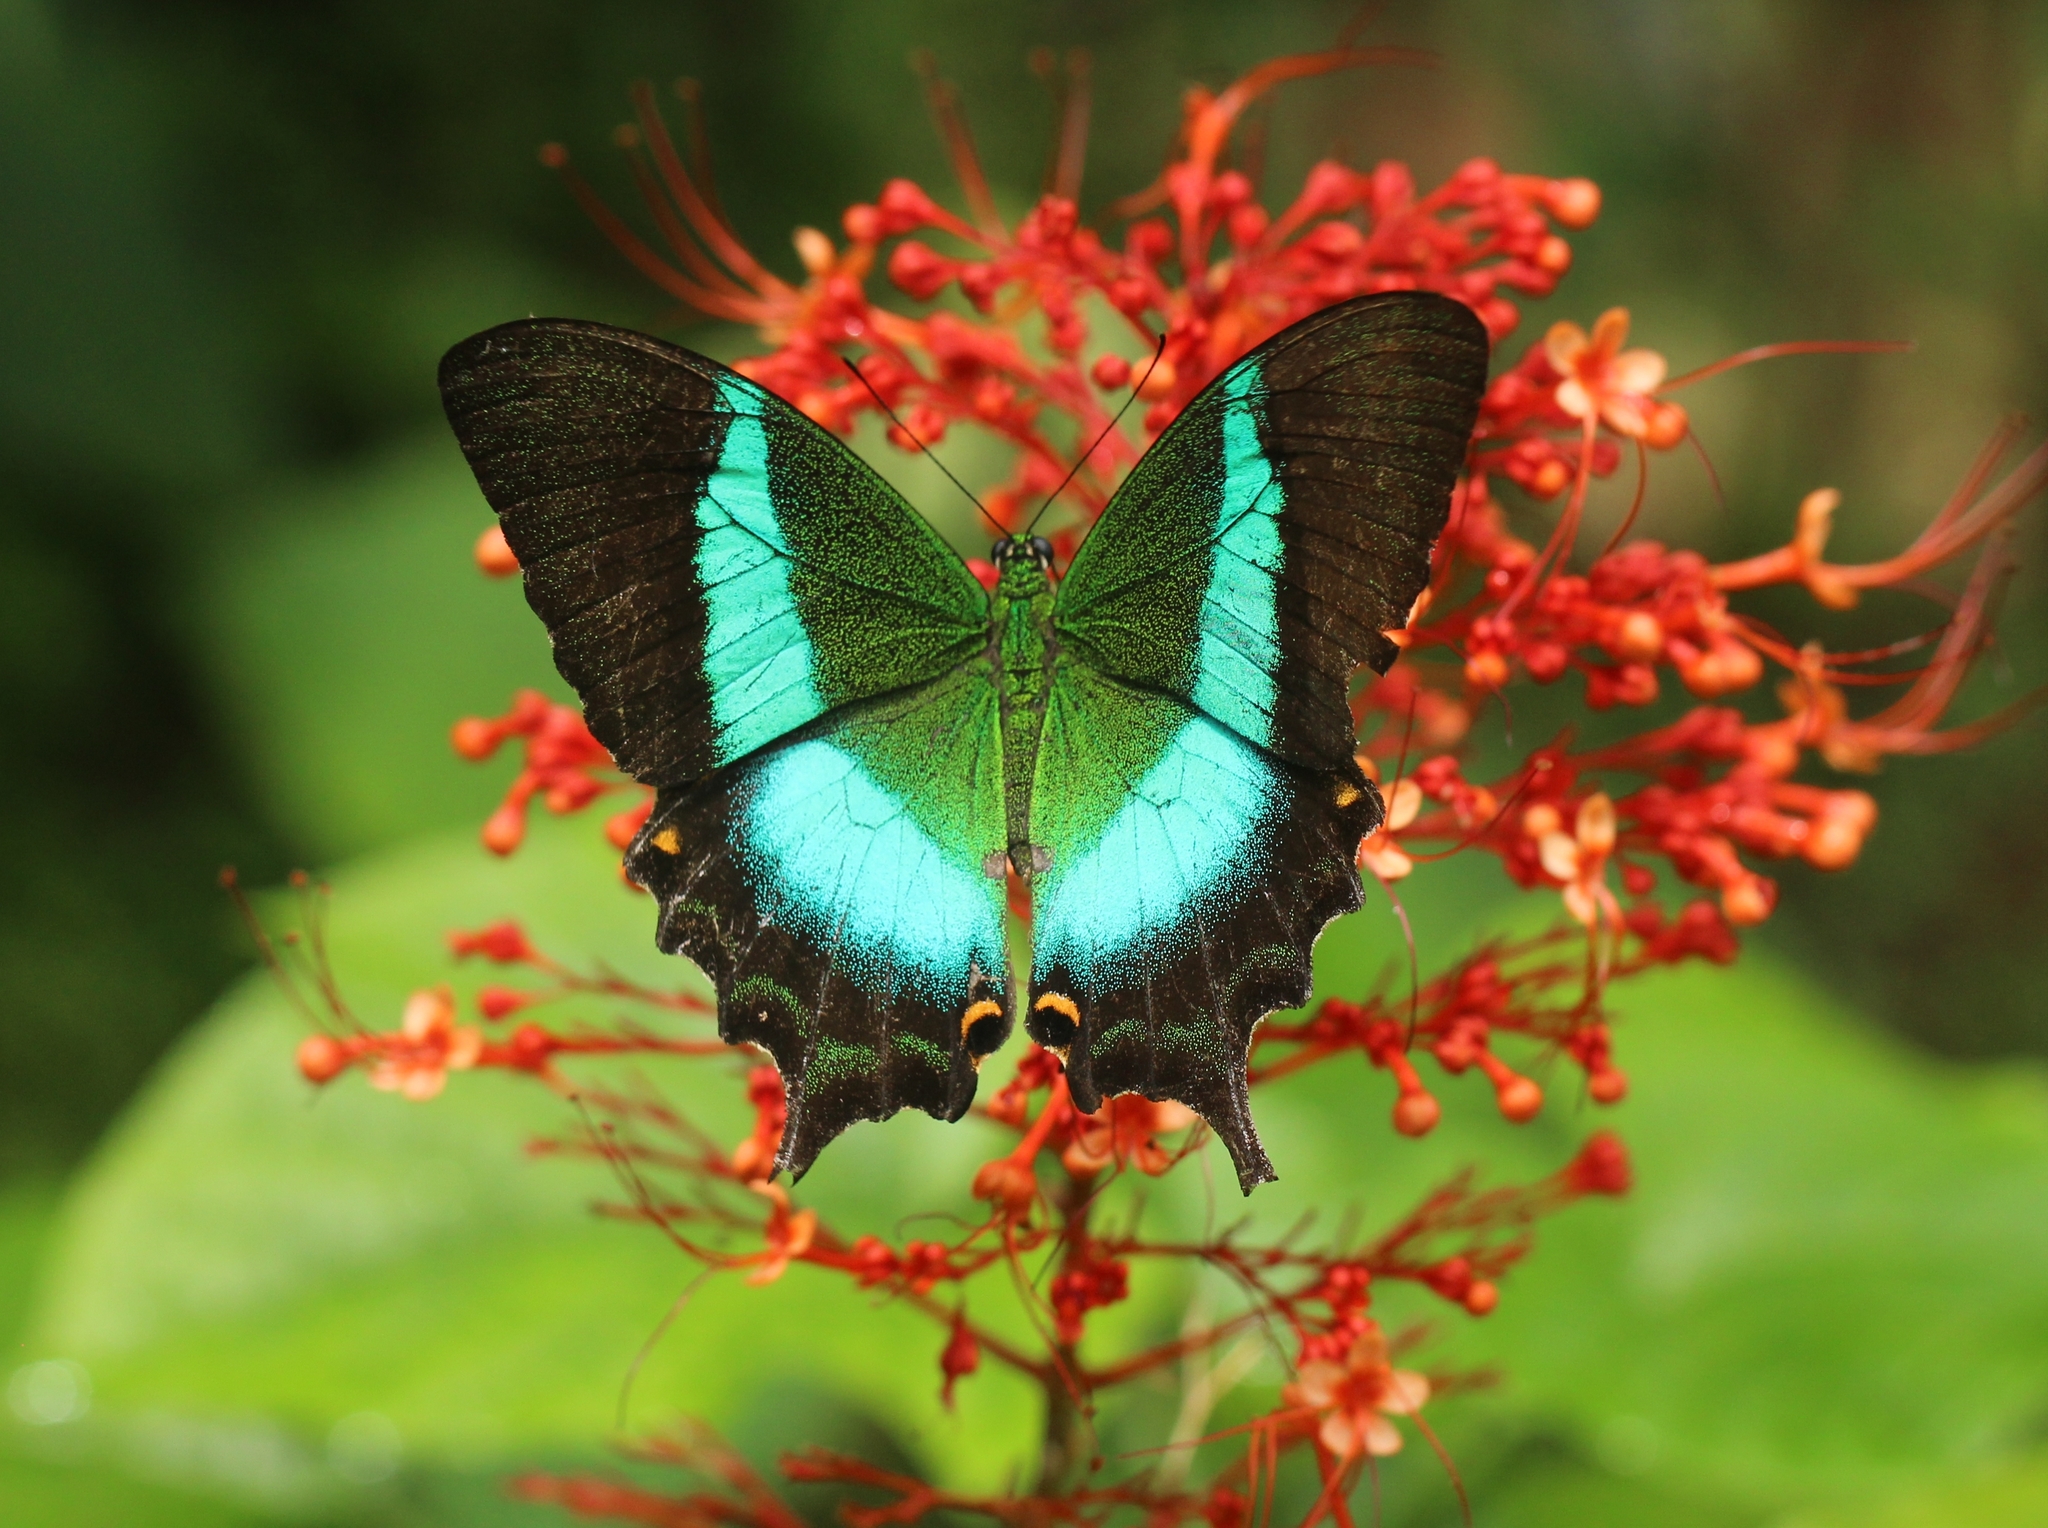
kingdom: Animalia
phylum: Arthropoda
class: Insecta
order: Lepidoptera
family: Papilionidae
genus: Papilio
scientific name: Papilio buddha
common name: Malabar banded peacock
